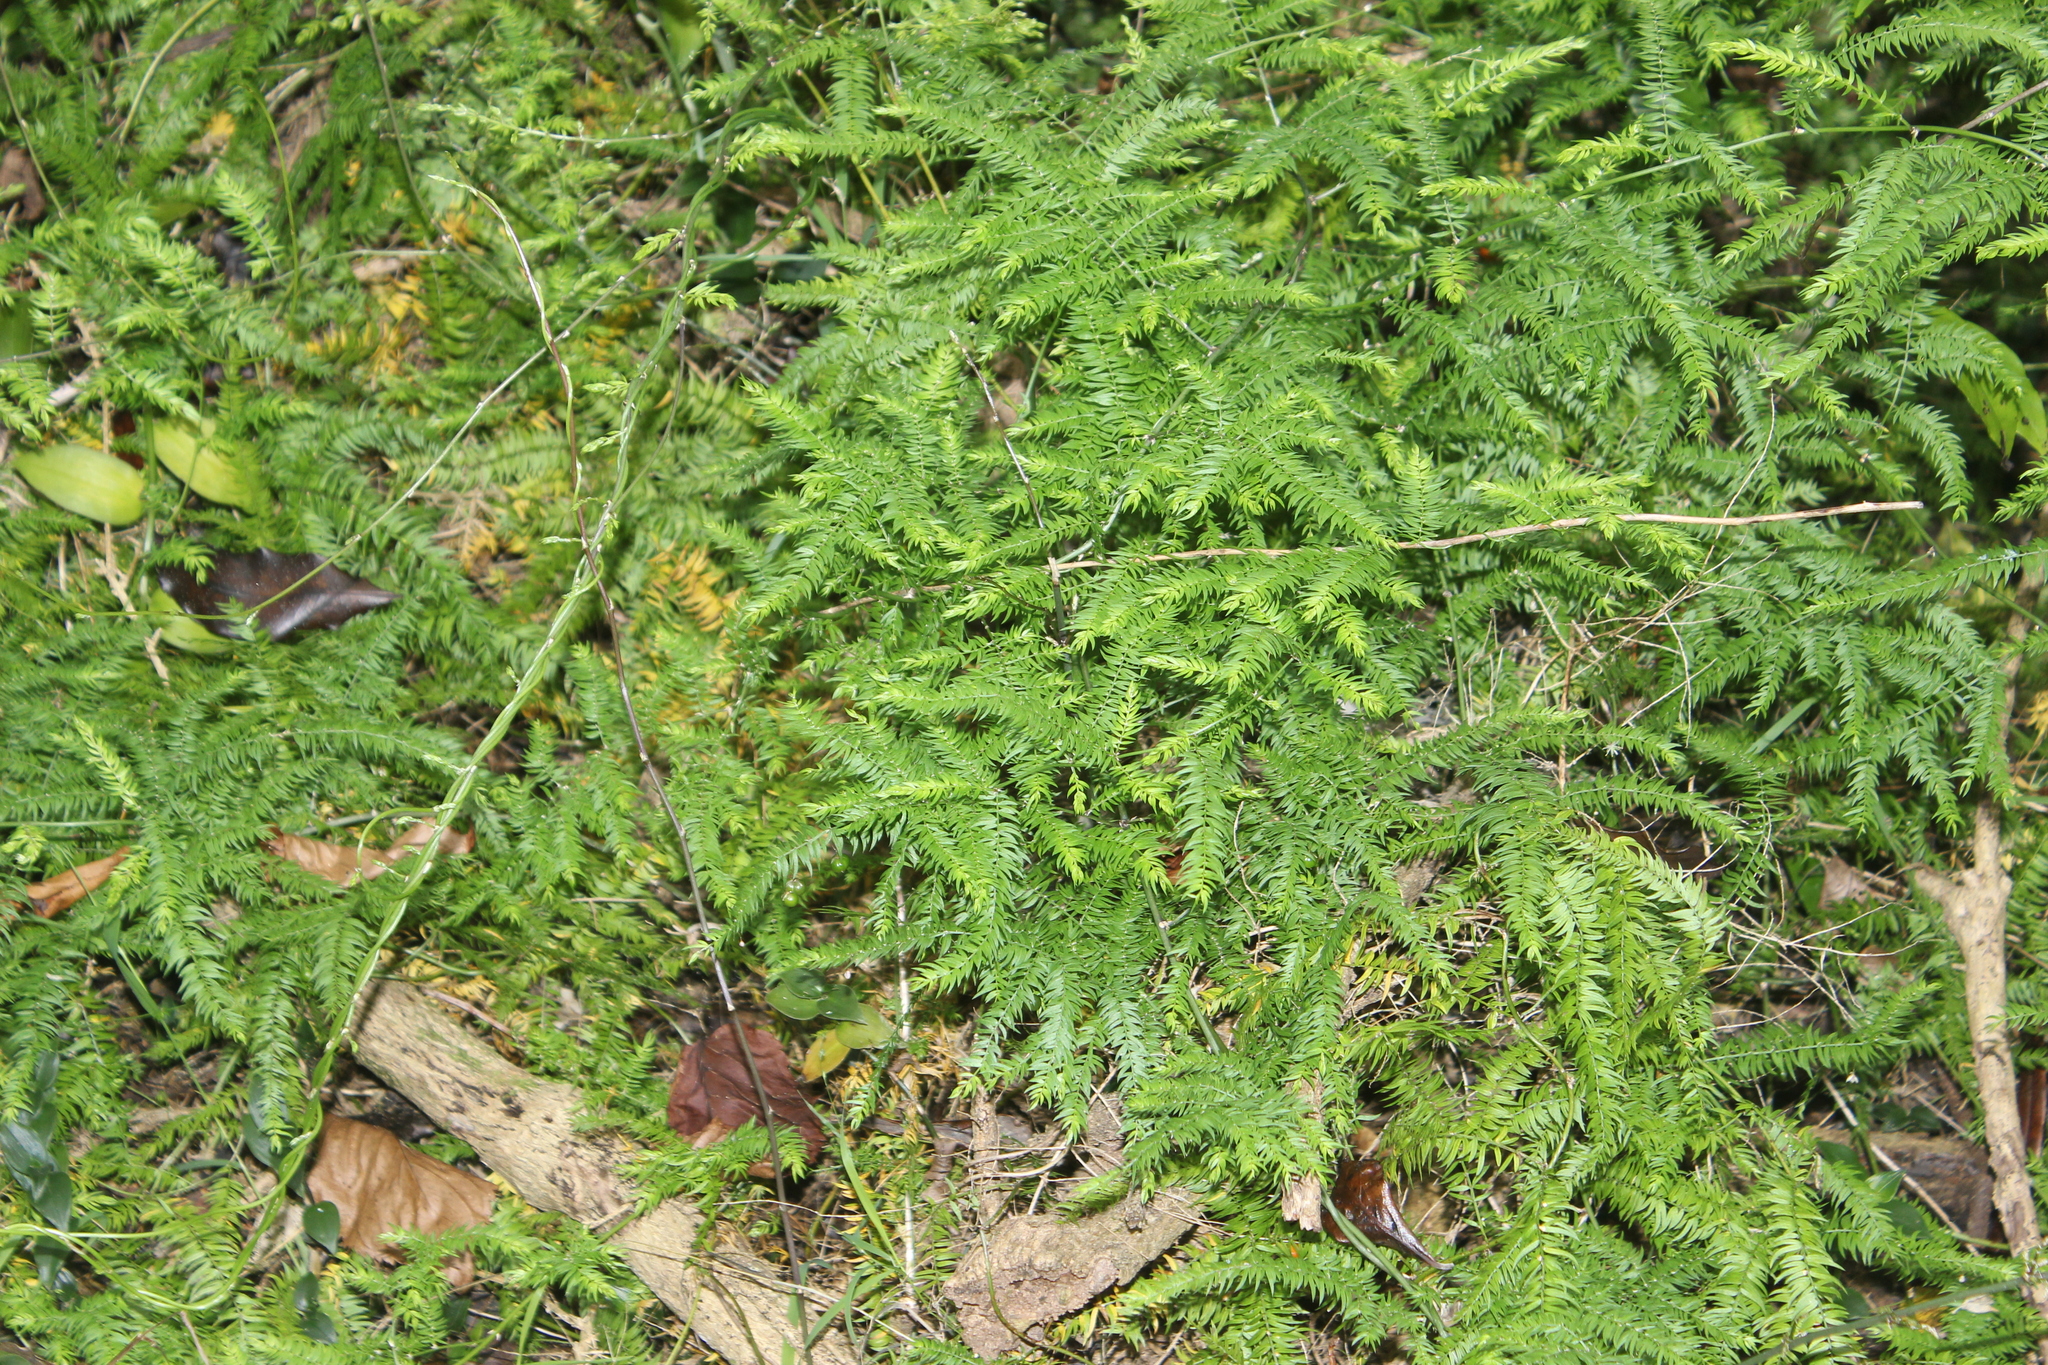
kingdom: Plantae
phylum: Tracheophyta
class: Liliopsida
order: Asparagales
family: Asparagaceae
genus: Asparagus
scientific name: Asparagus scandens
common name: Asparagus-fern
